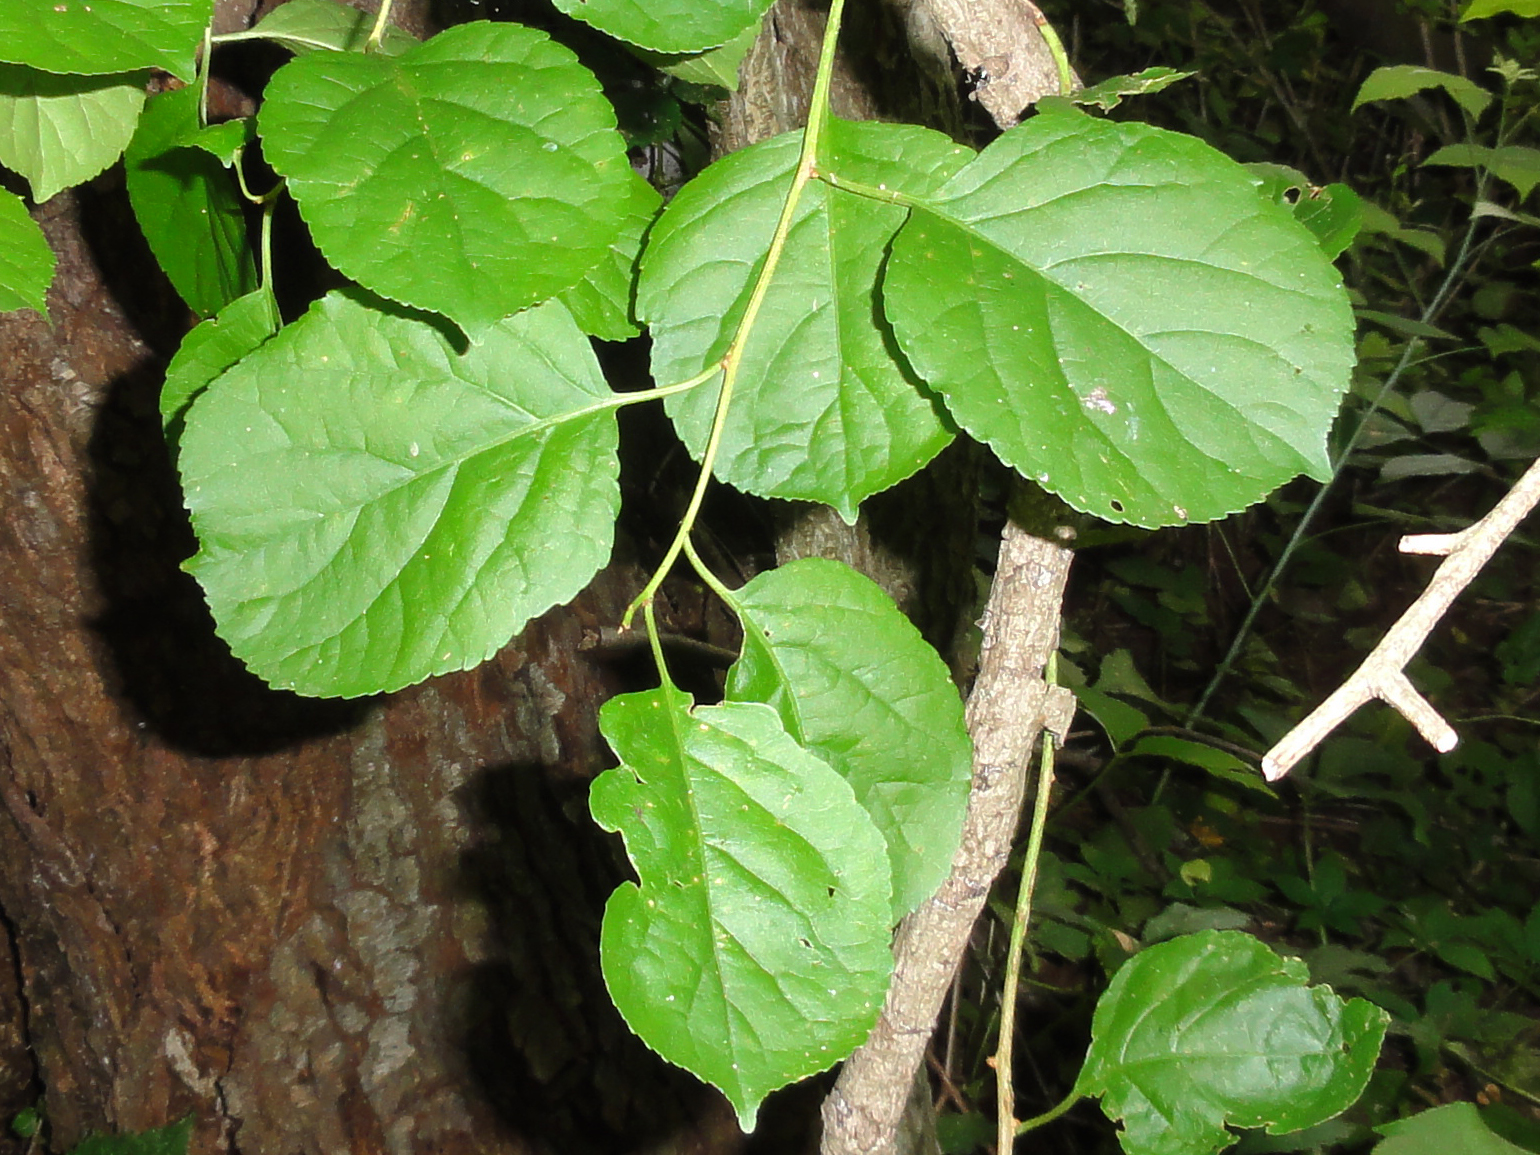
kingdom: Plantae
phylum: Tracheophyta
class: Magnoliopsida
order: Celastrales
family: Celastraceae
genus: Celastrus
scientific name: Celastrus orbiculatus
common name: Oriental bittersweet
